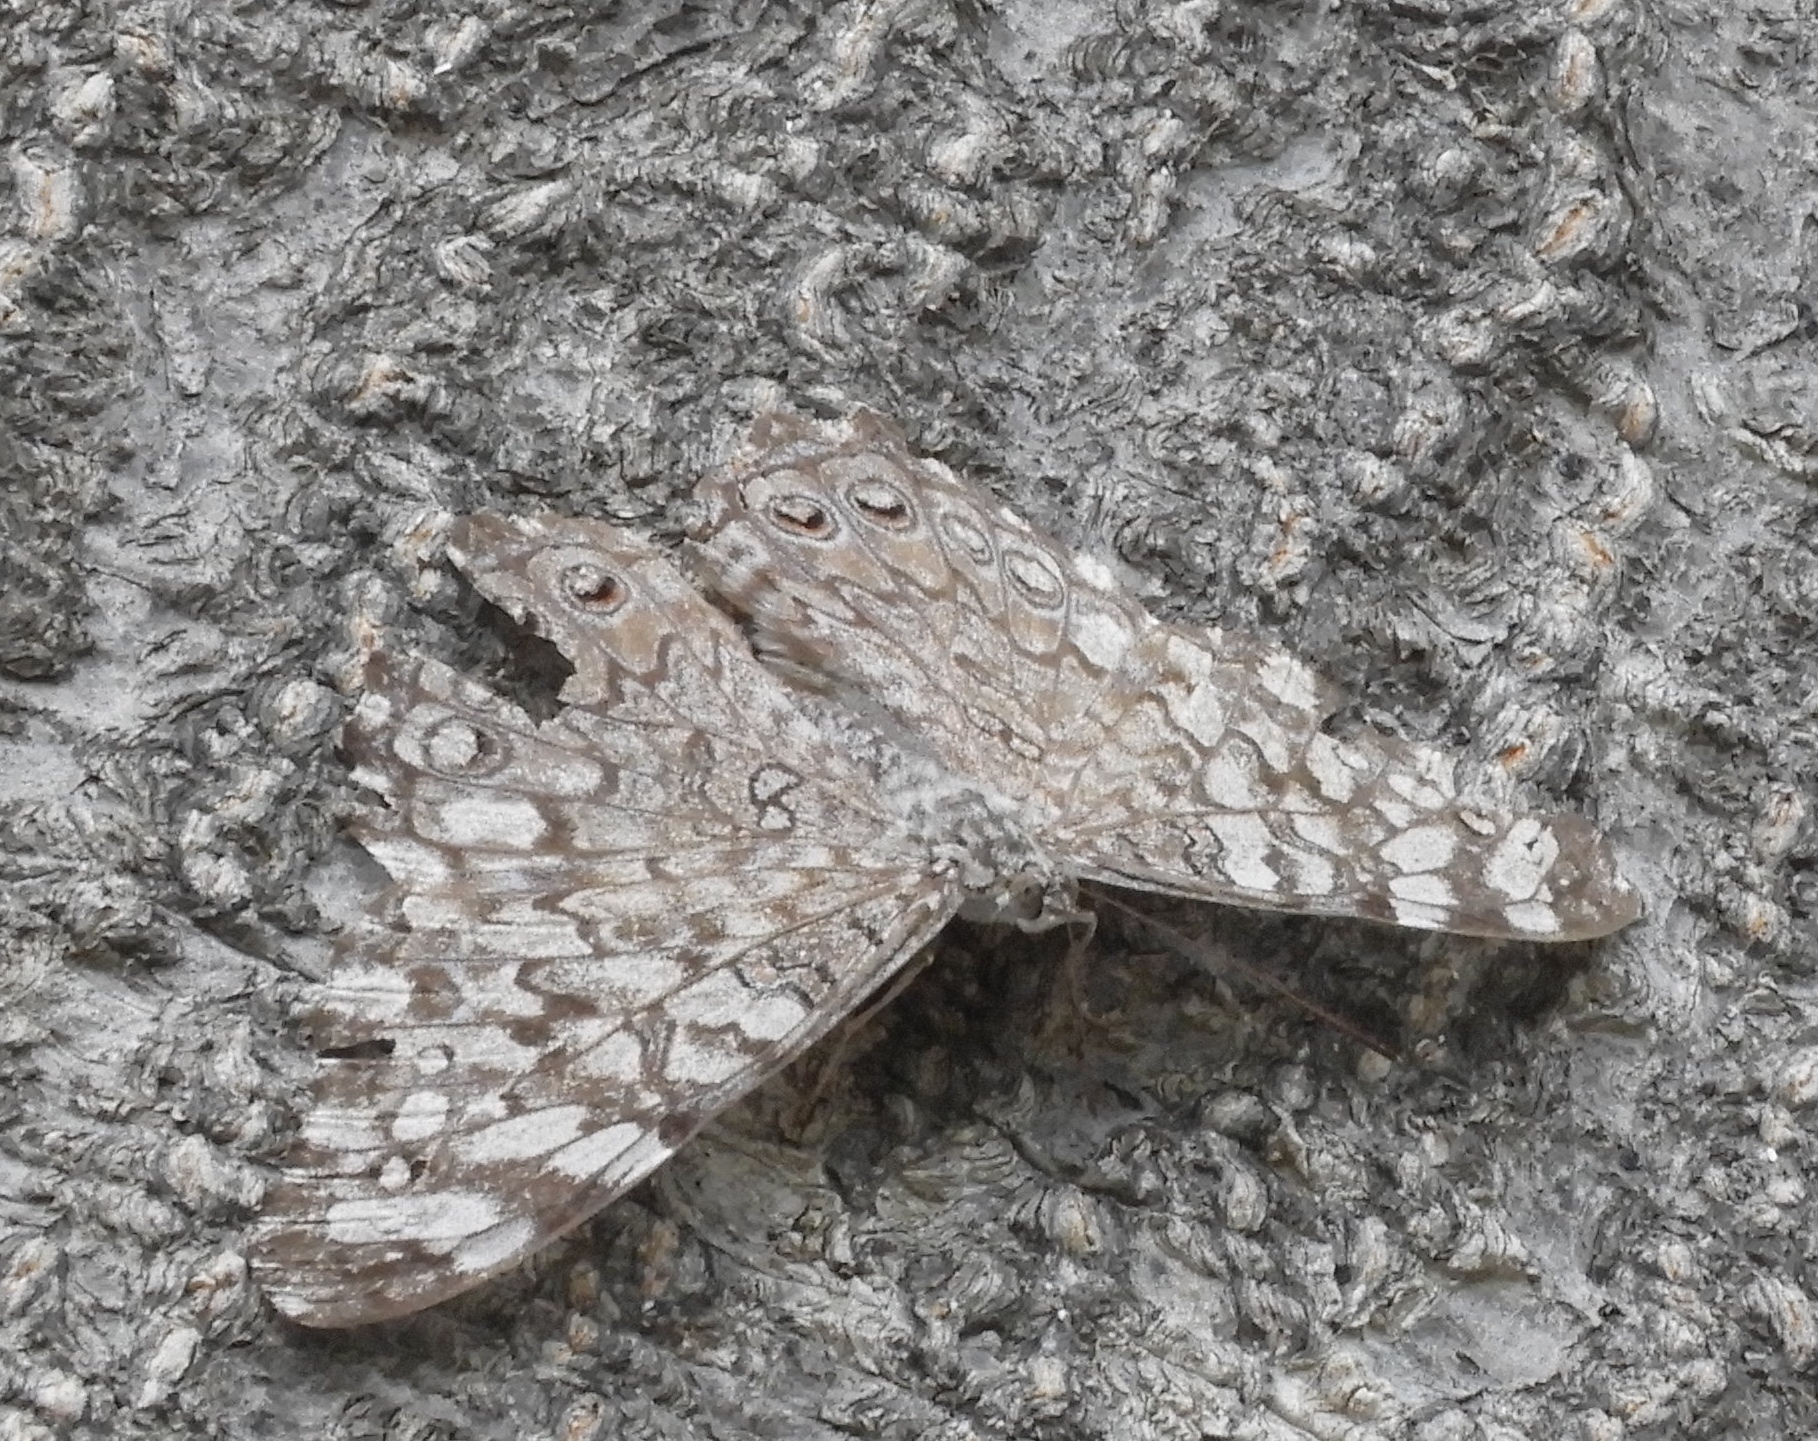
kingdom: Animalia
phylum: Arthropoda
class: Insecta
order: Lepidoptera
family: Nymphalidae
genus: Hamadryas
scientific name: Hamadryas februa
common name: Gray cracker
